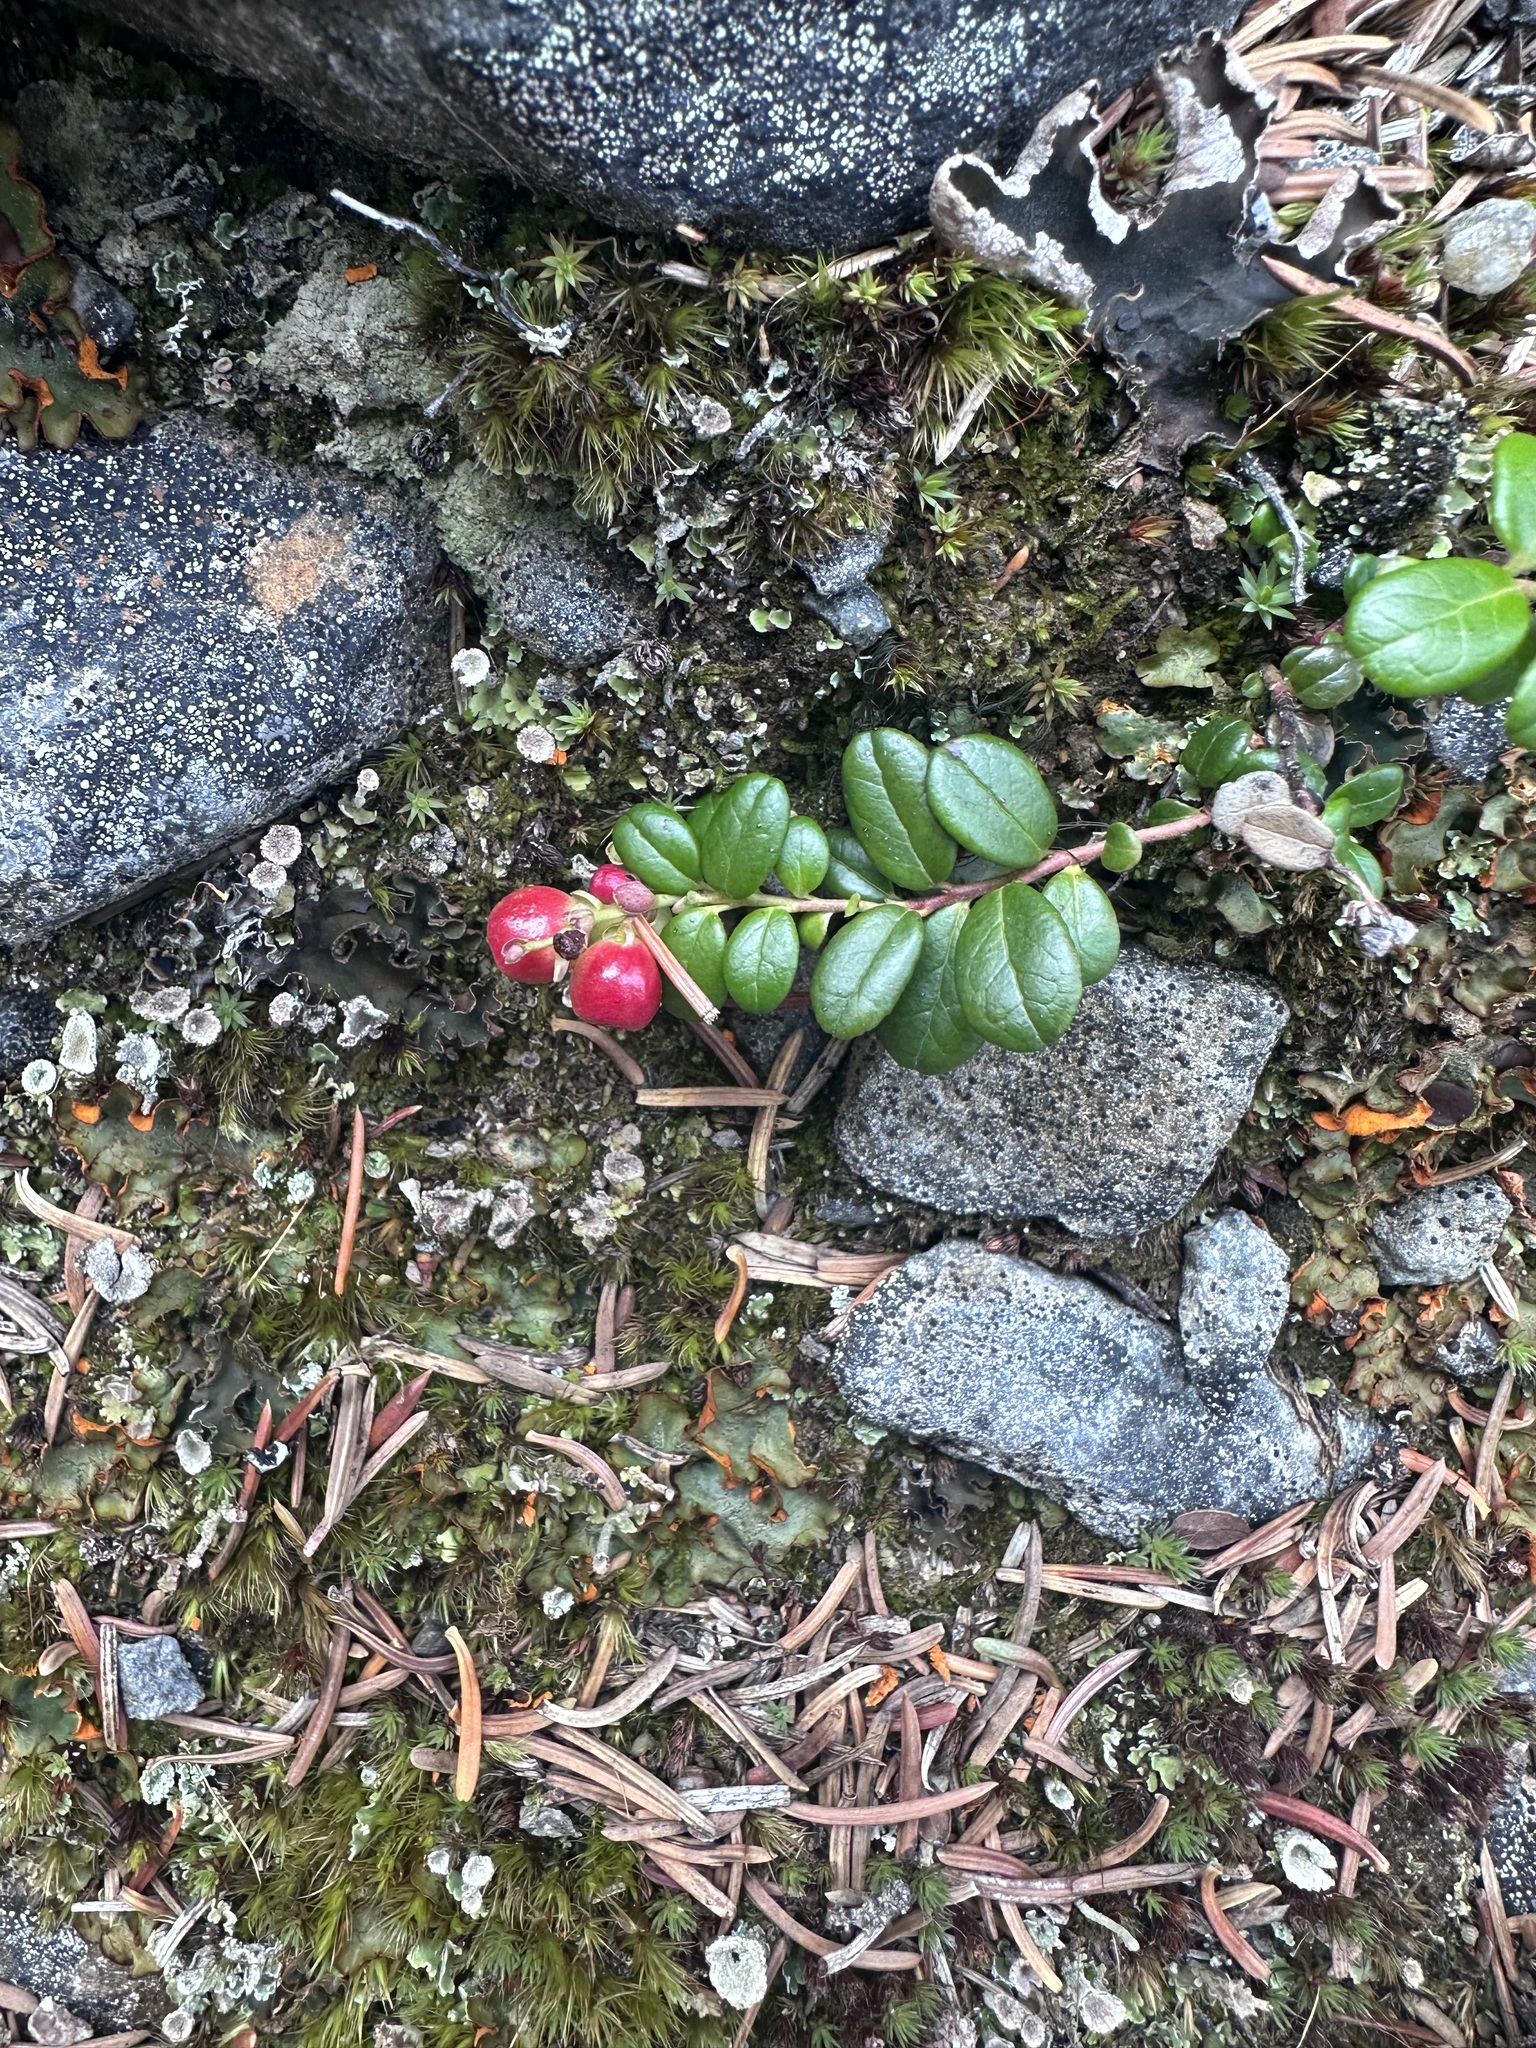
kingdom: Plantae
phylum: Tracheophyta
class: Magnoliopsida
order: Ericales
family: Ericaceae
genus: Vaccinium
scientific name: Vaccinium vitis-idaea
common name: Cowberry
